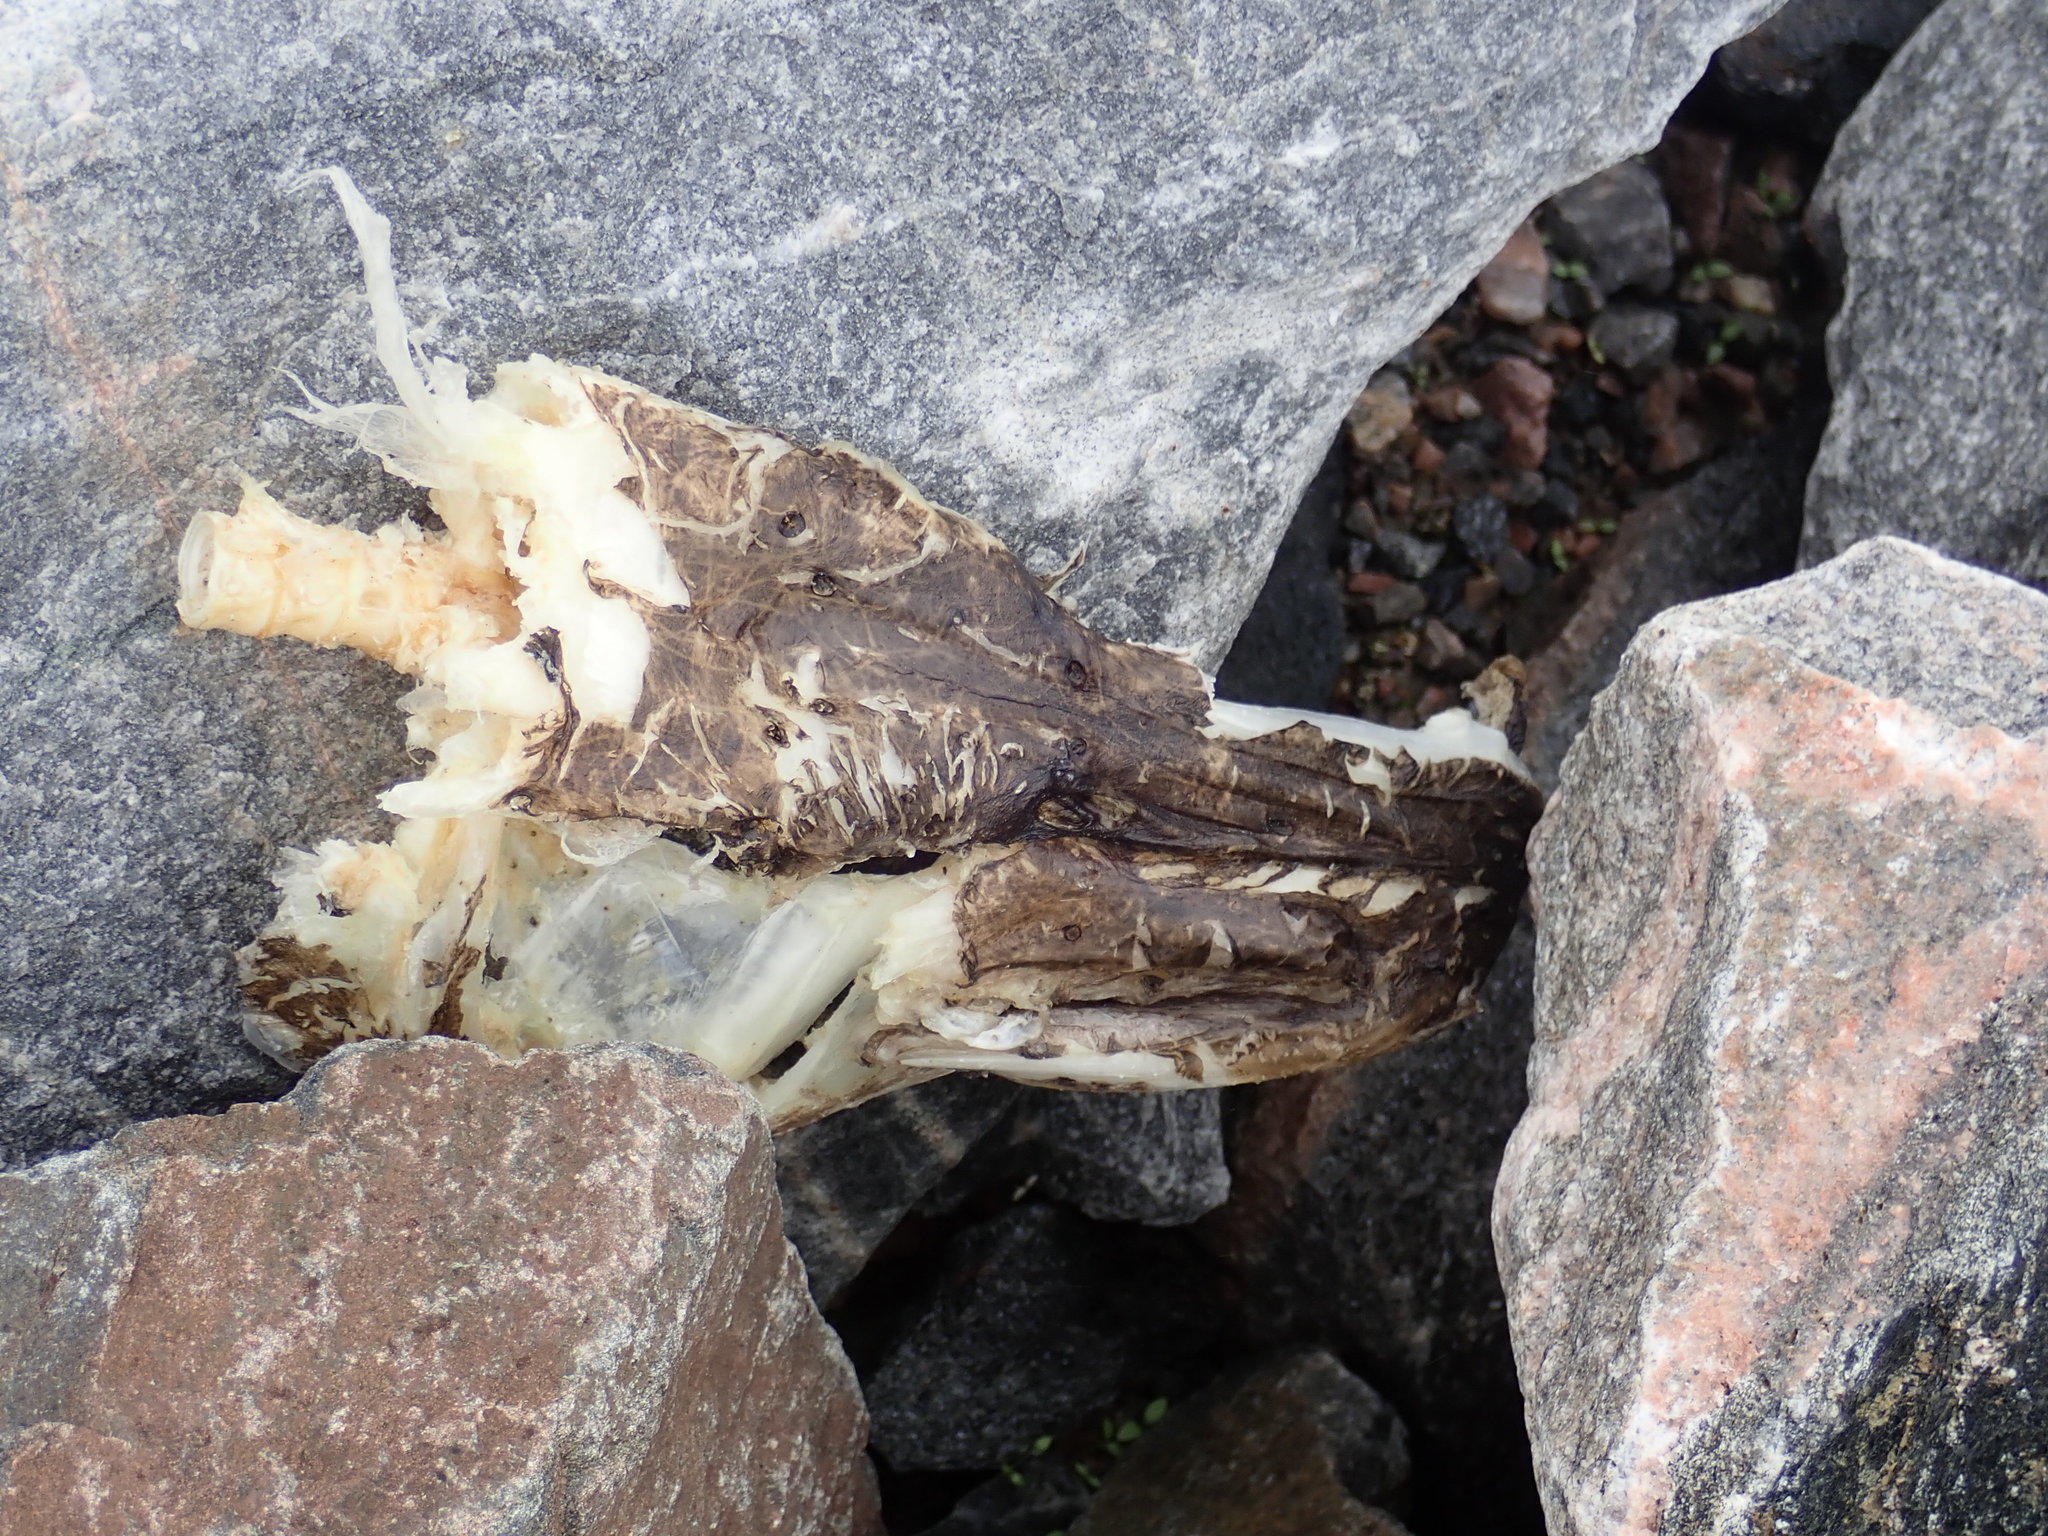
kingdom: Animalia
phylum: Chordata
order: Esociformes
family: Esocidae
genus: Esox
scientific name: Esox lucius
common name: Northern pike
